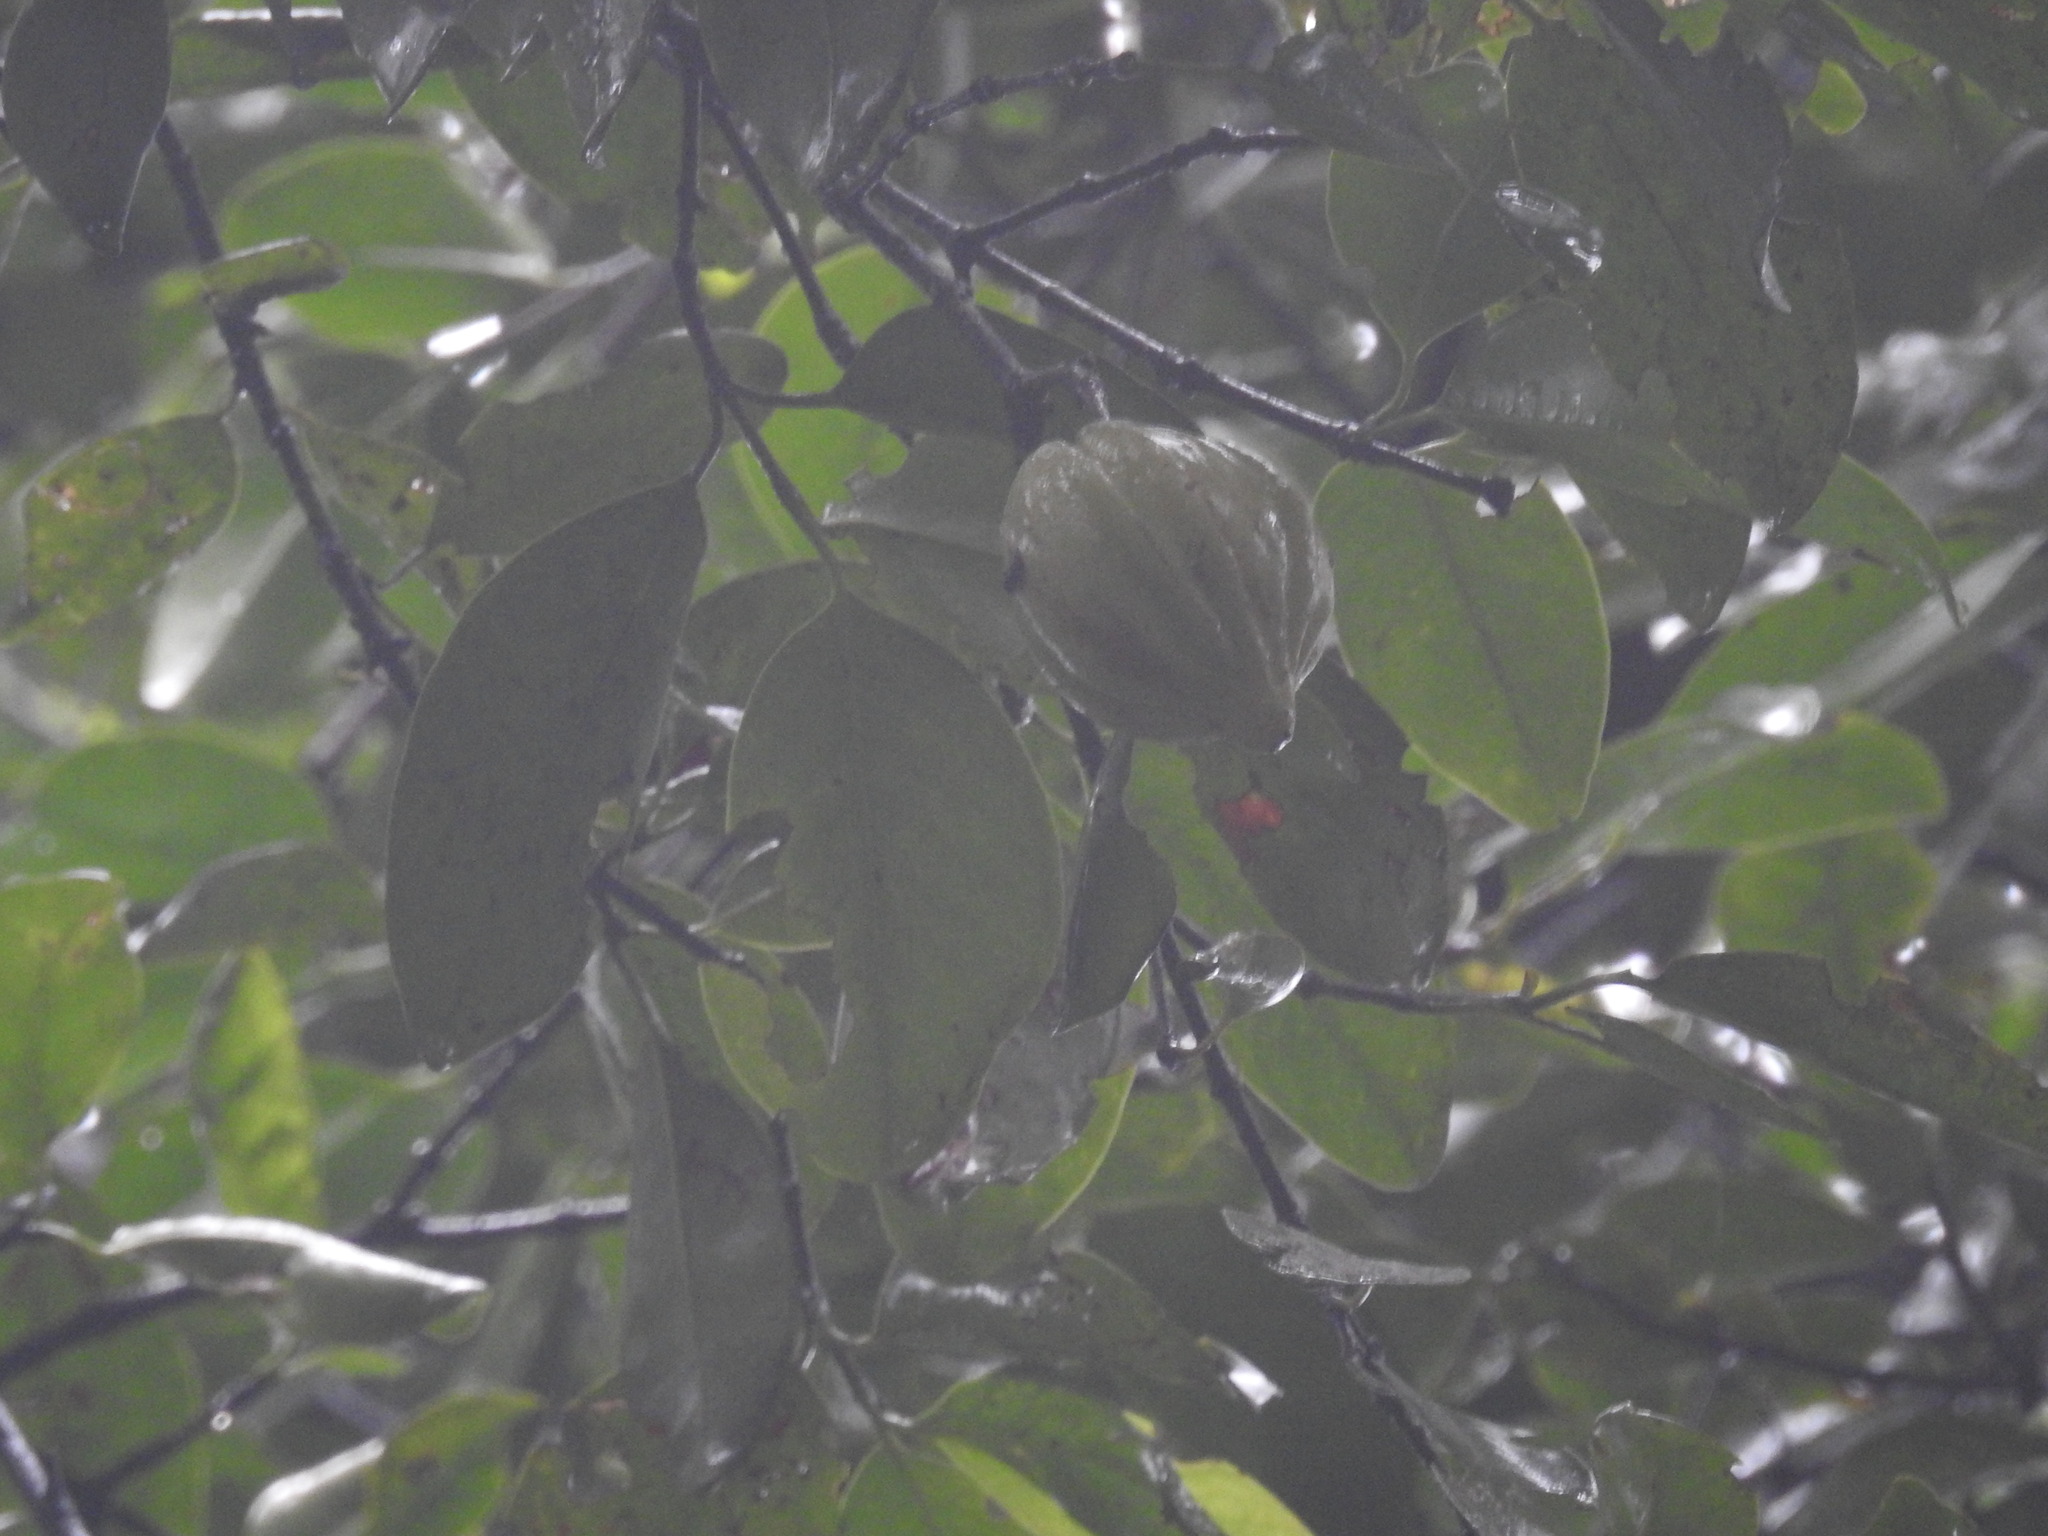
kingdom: Plantae
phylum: Tracheophyta
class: Magnoliopsida
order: Malpighiales
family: Clusiaceae
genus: Garcinia
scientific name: Garcinia gummi-gutta
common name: Malabar tamarind
